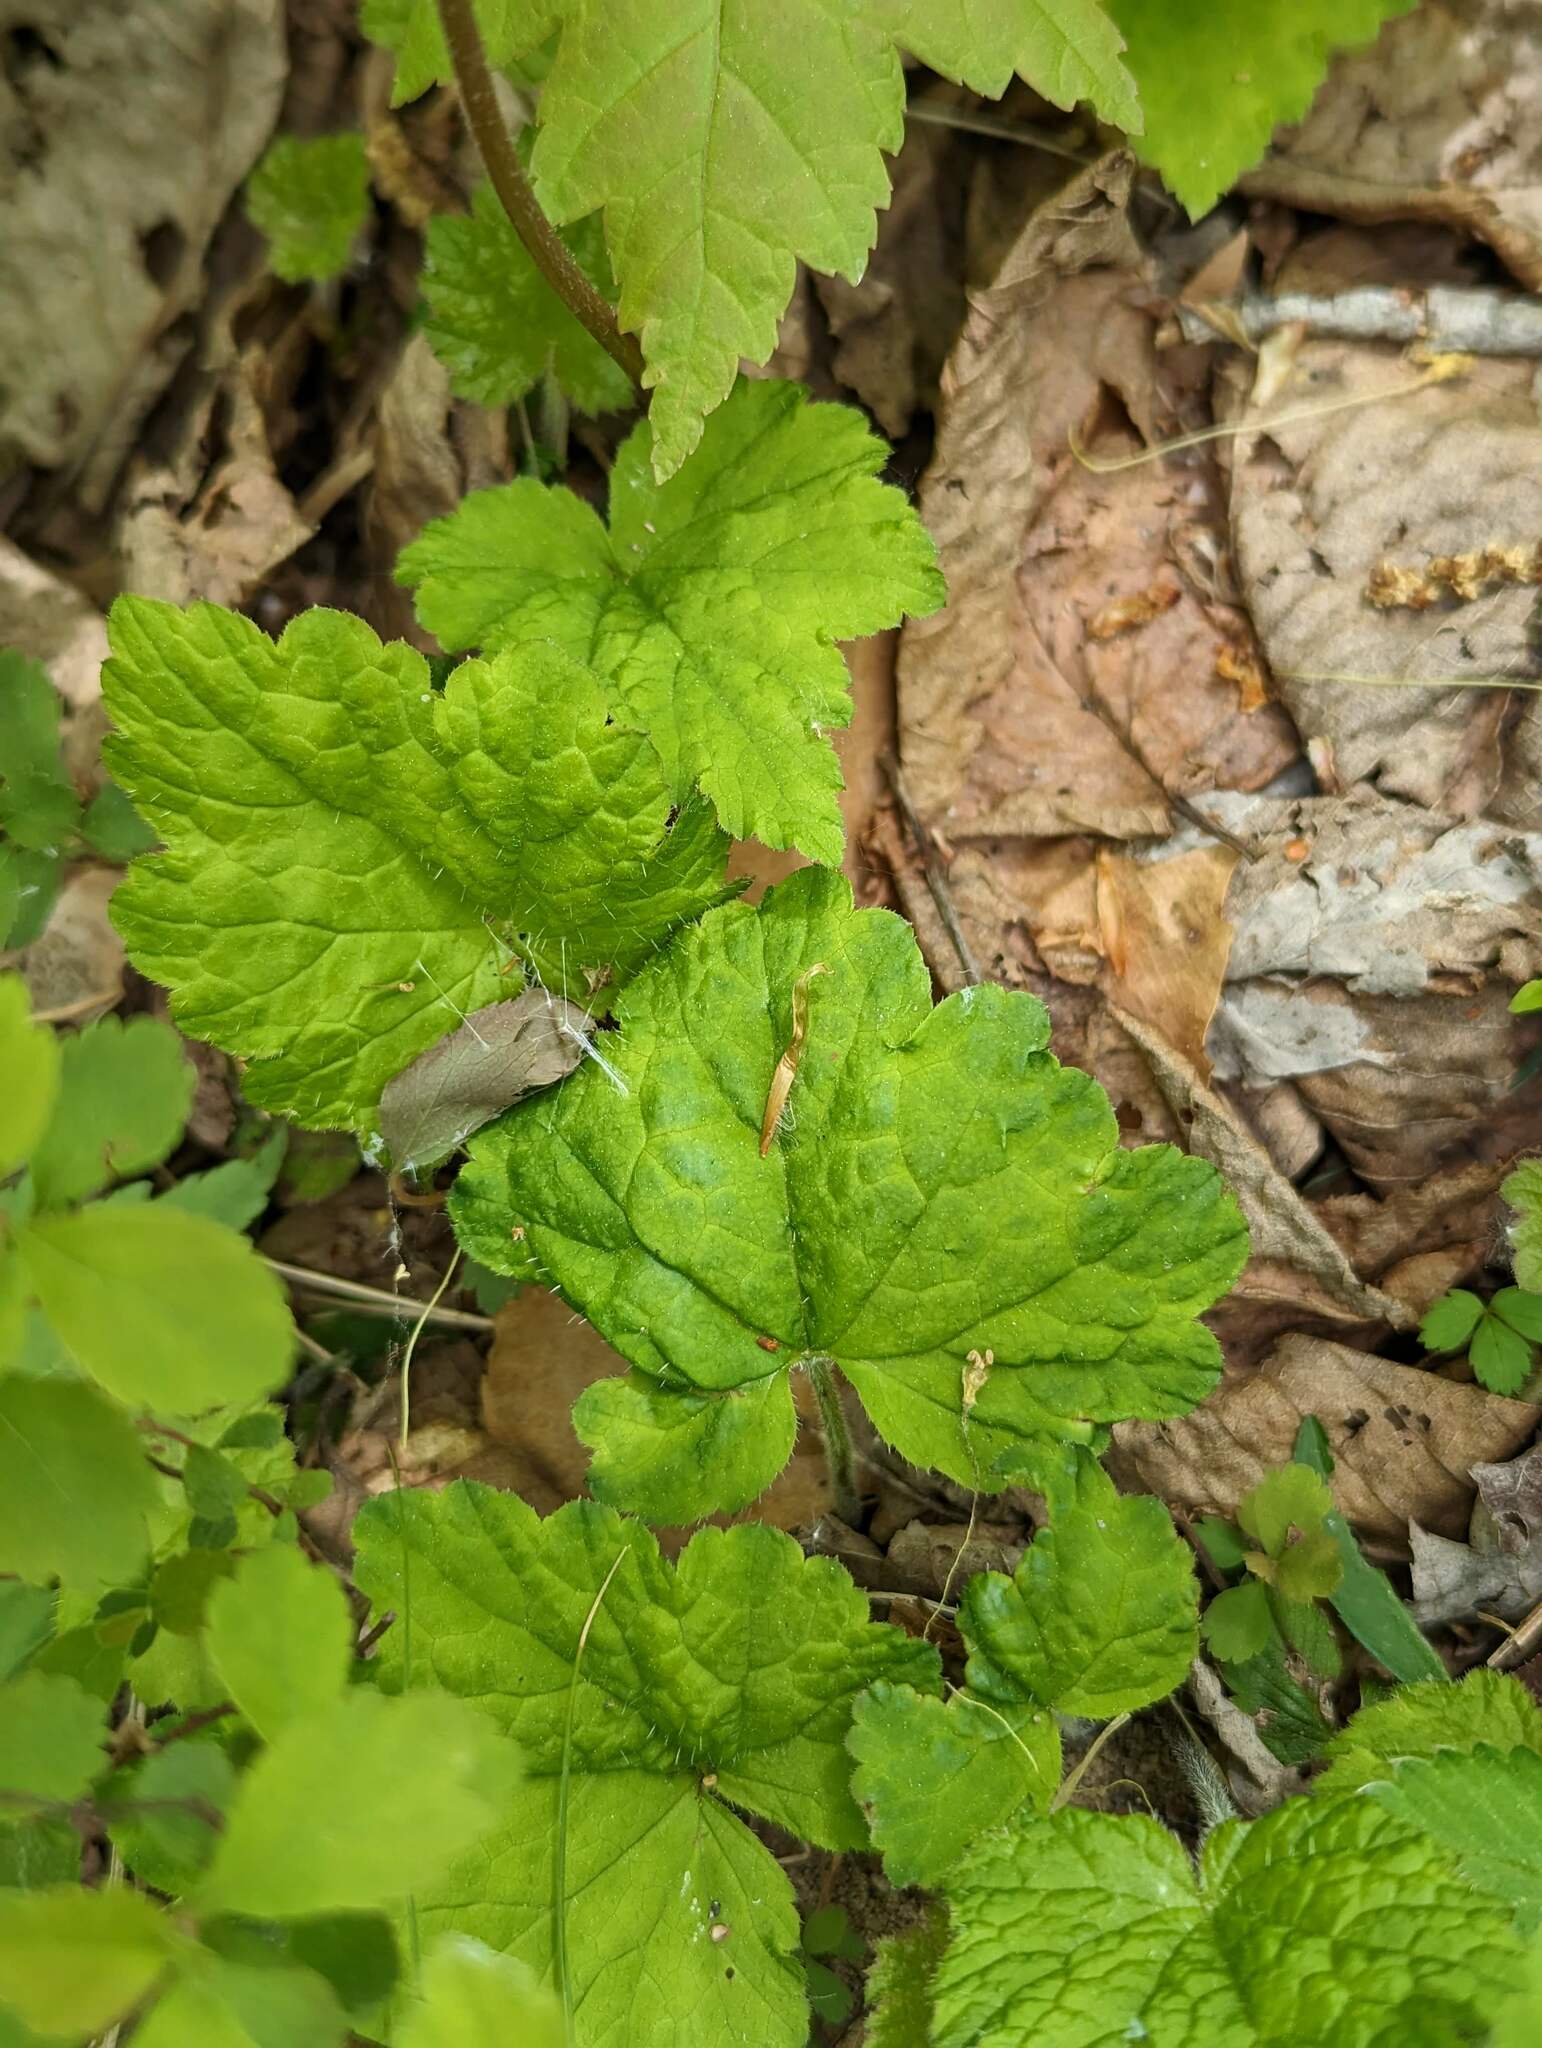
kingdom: Plantae
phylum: Tracheophyta
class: Magnoliopsida
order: Saxifragales
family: Saxifragaceae
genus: Tiarella
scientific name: Tiarella stolonifera
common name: Stoloniferous foamflower
